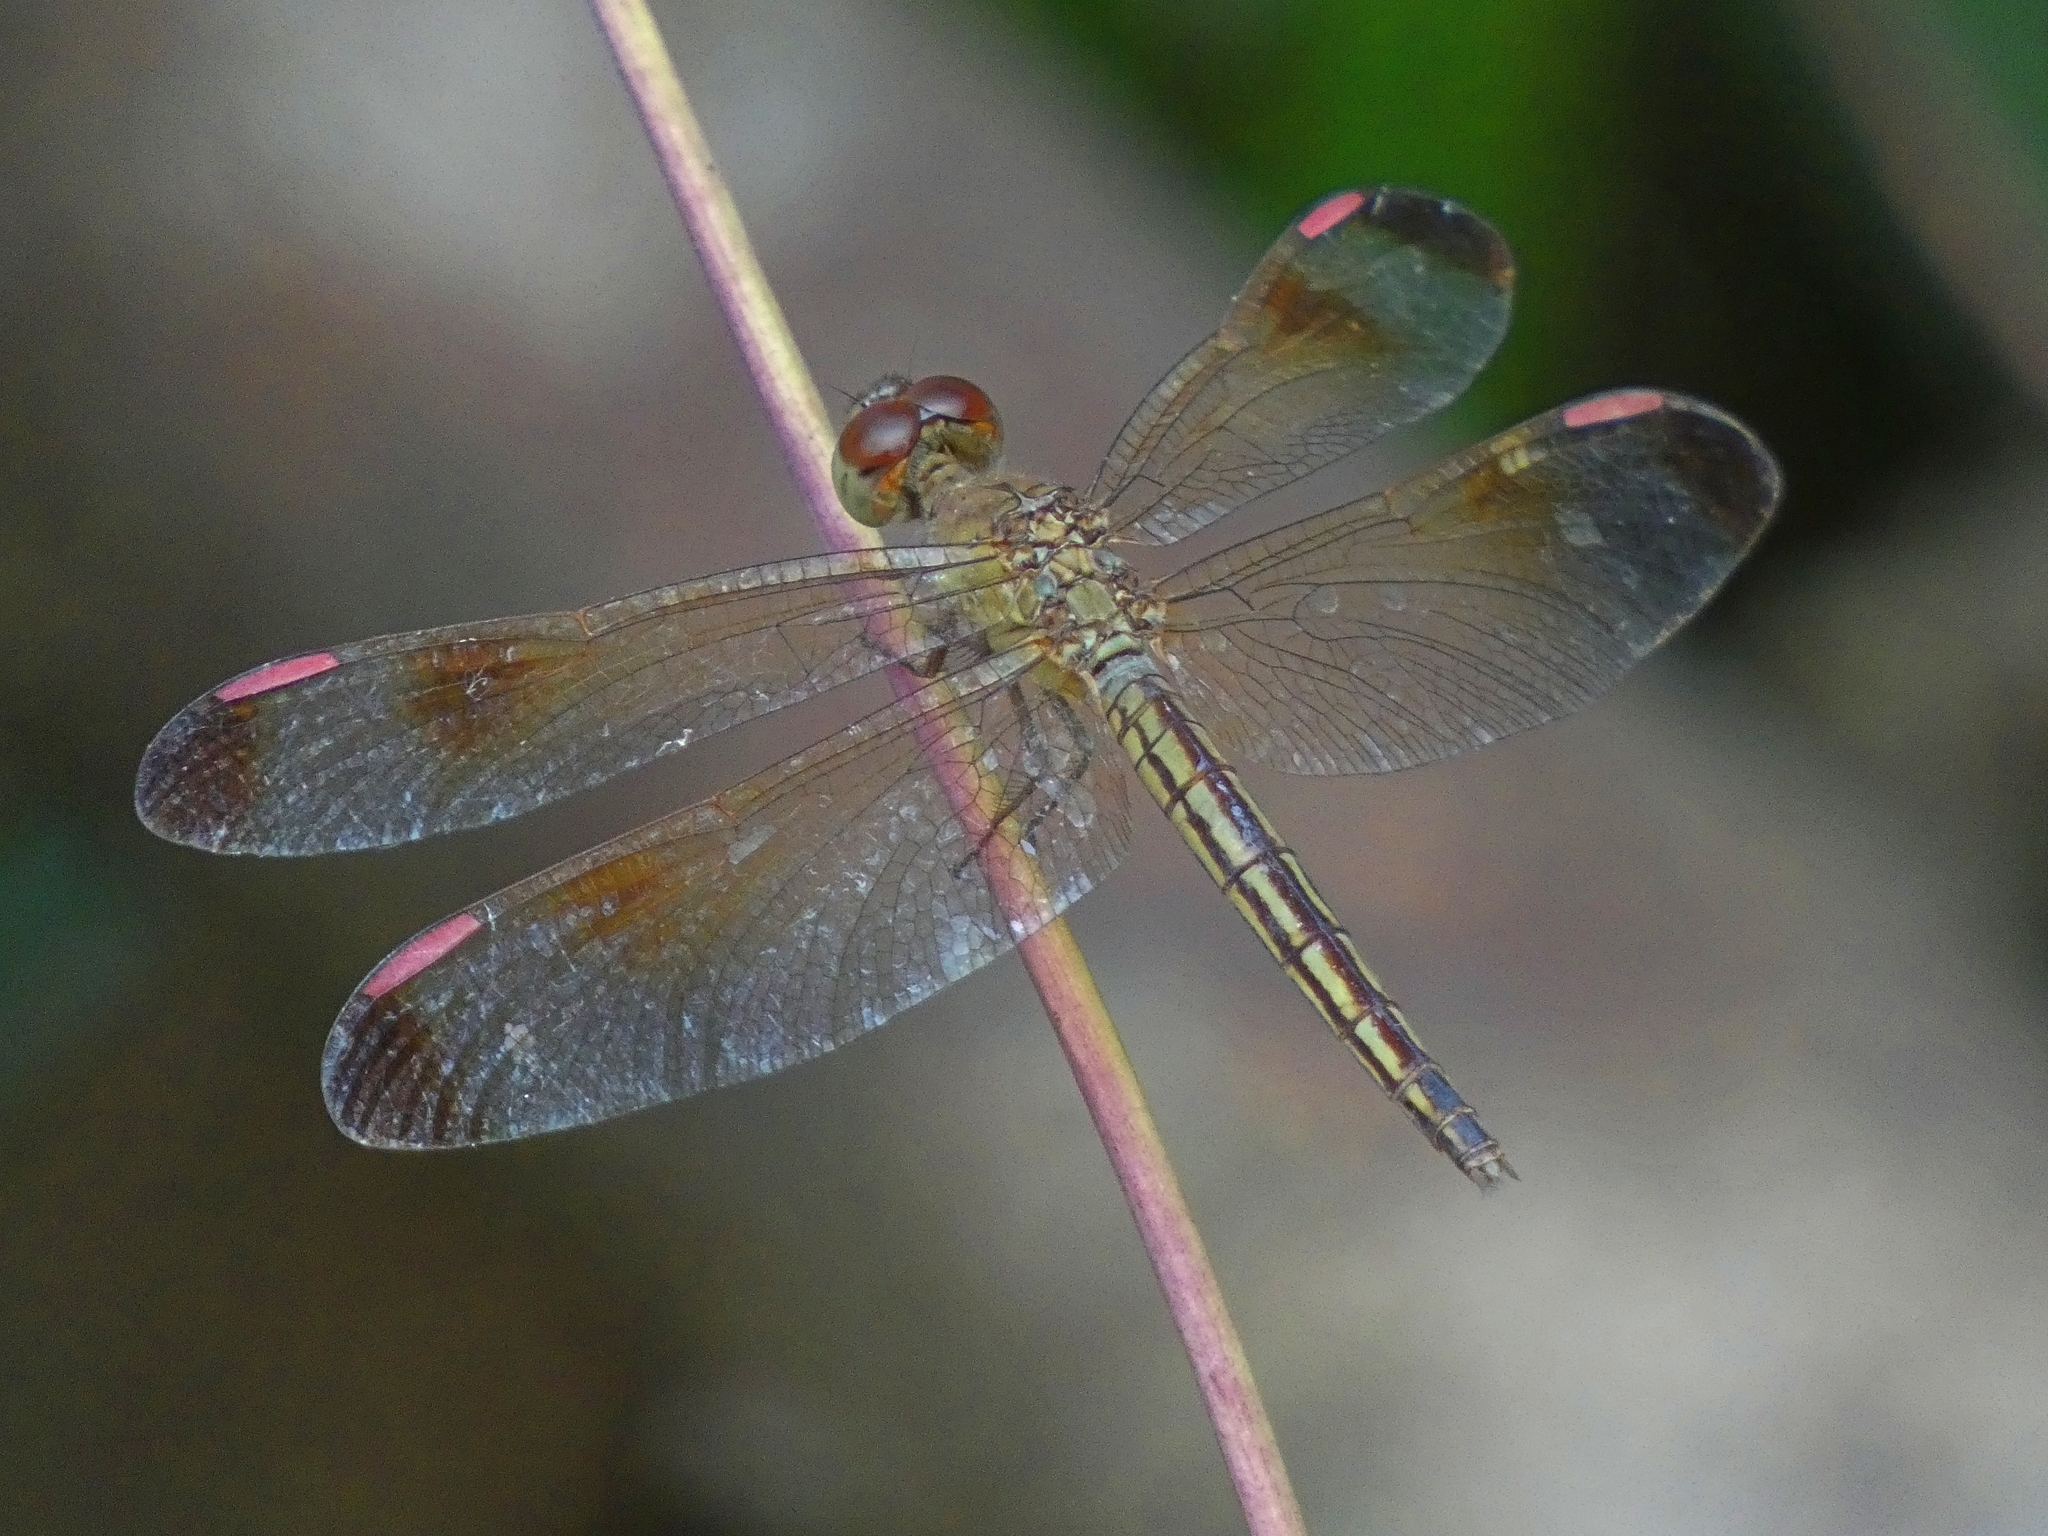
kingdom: Animalia
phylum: Arthropoda
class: Insecta
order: Odonata
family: Libellulidae
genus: Neurothemis
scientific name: Neurothemis stigmatizans
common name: Painted grasshawk
